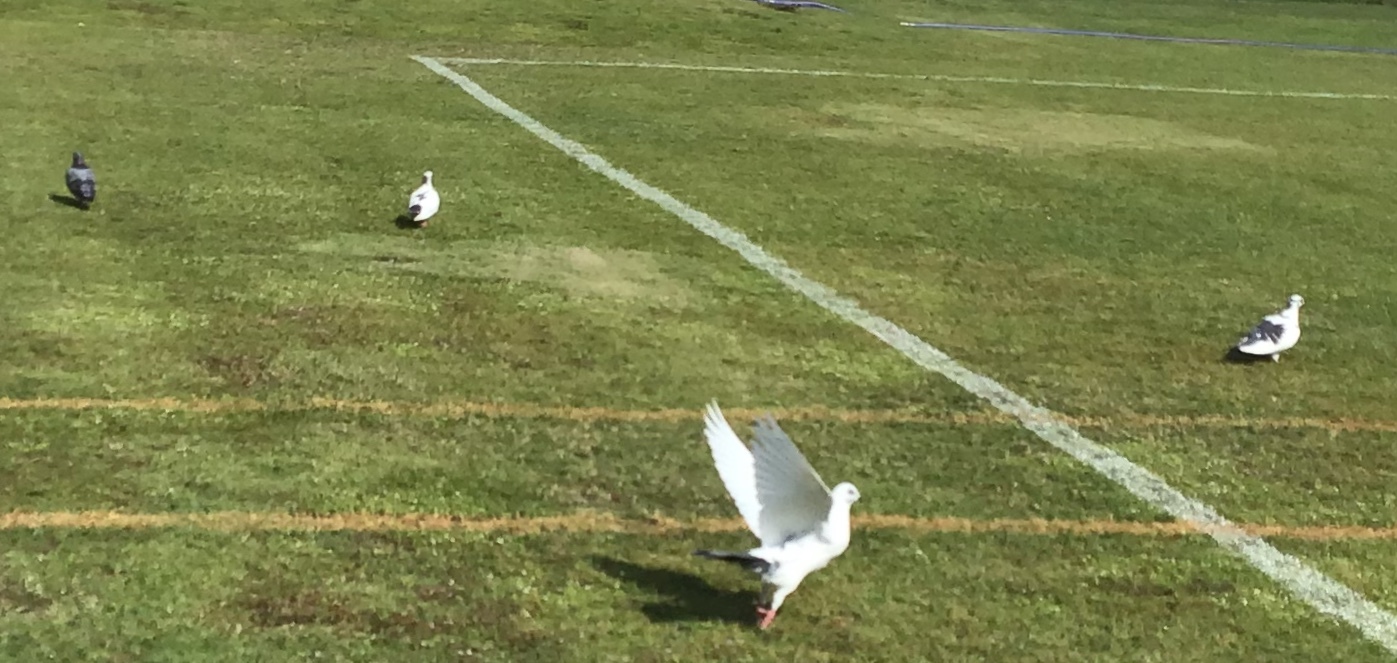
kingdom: Animalia
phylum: Chordata
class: Aves
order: Columbiformes
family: Columbidae
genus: Columba
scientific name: Columba livia
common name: Rock pigeon
